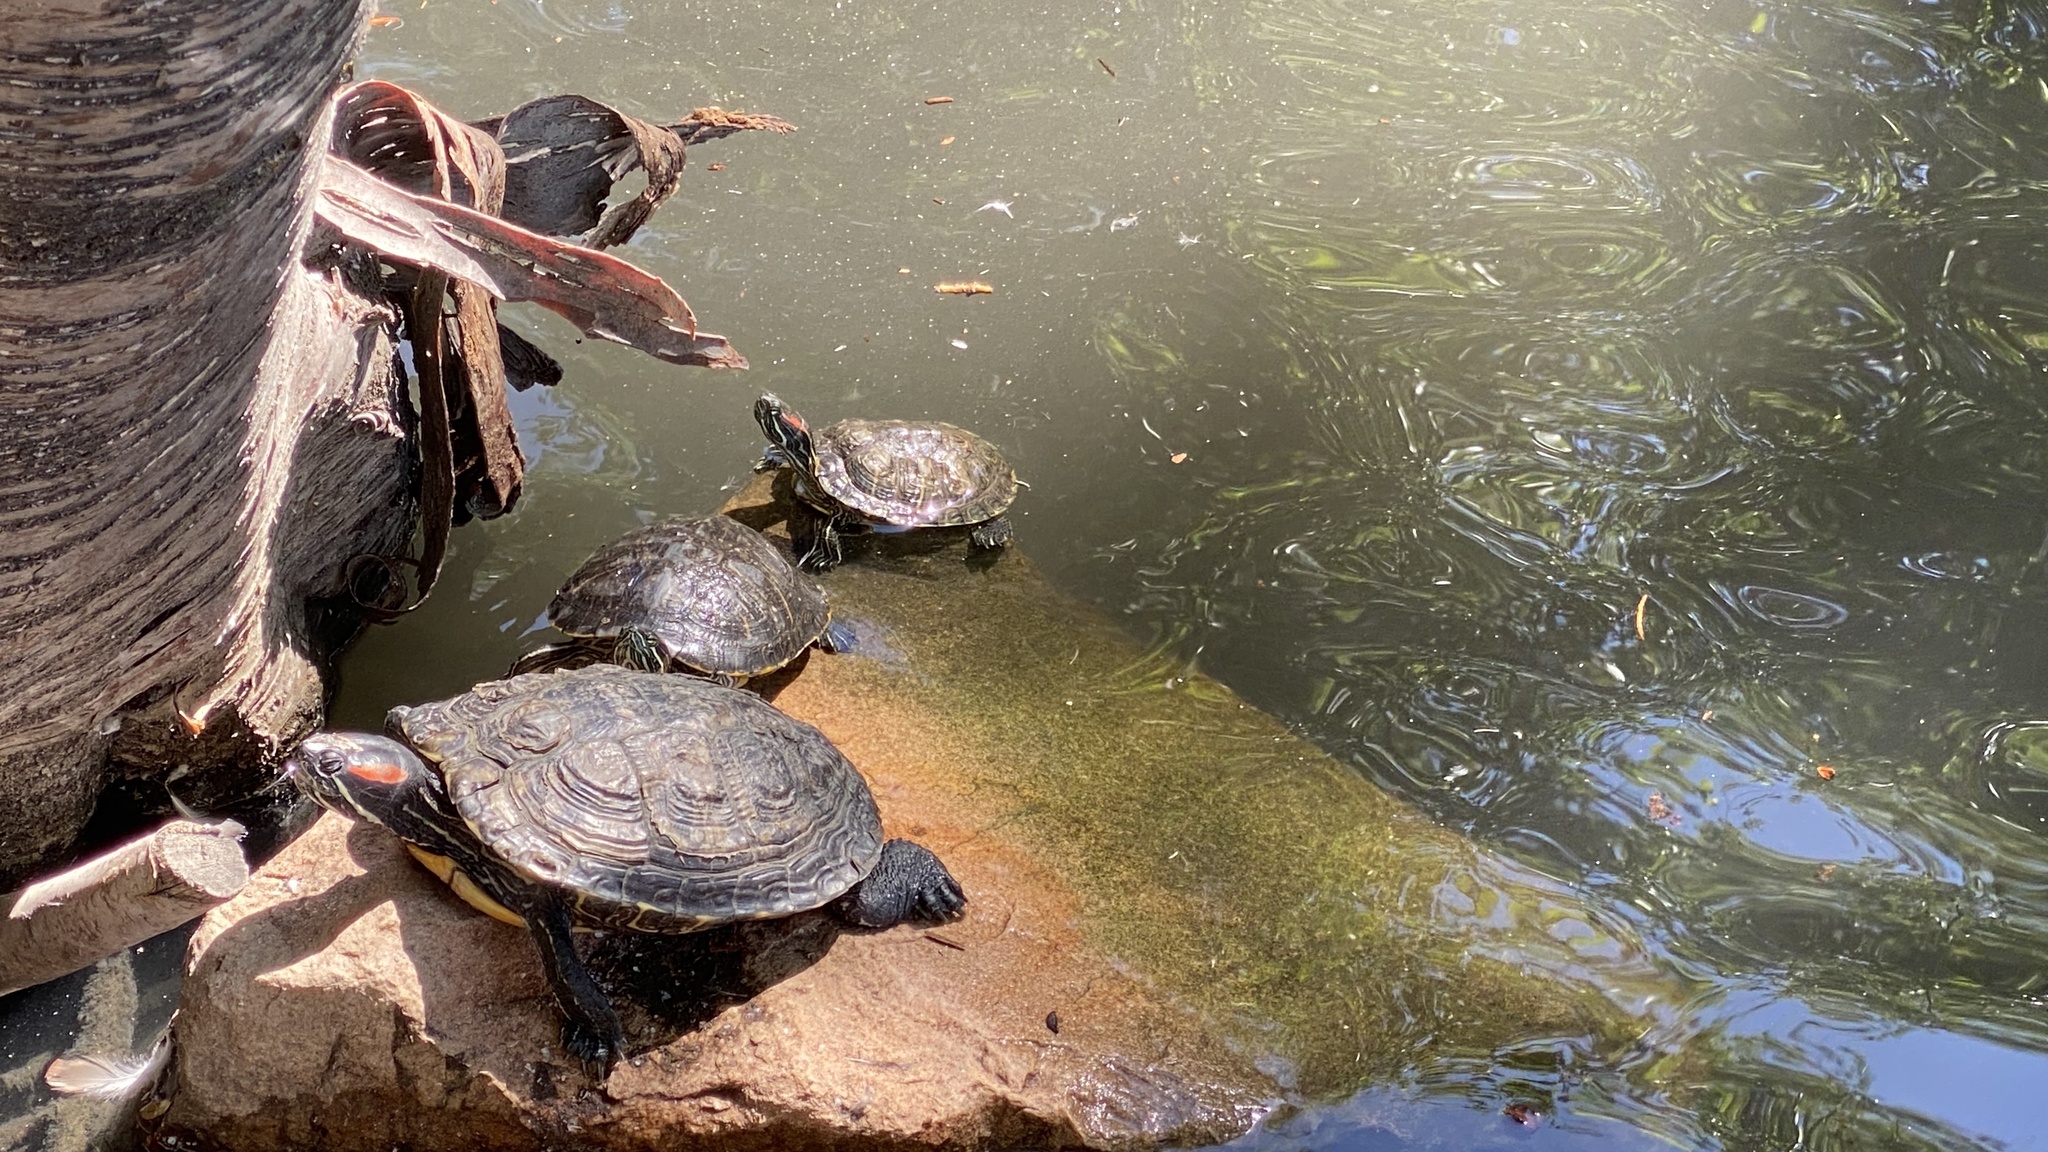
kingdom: Animalia
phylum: Chordata
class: Testudines
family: Emydidae
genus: Trachemys
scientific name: Trachemys scripta
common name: Slider
